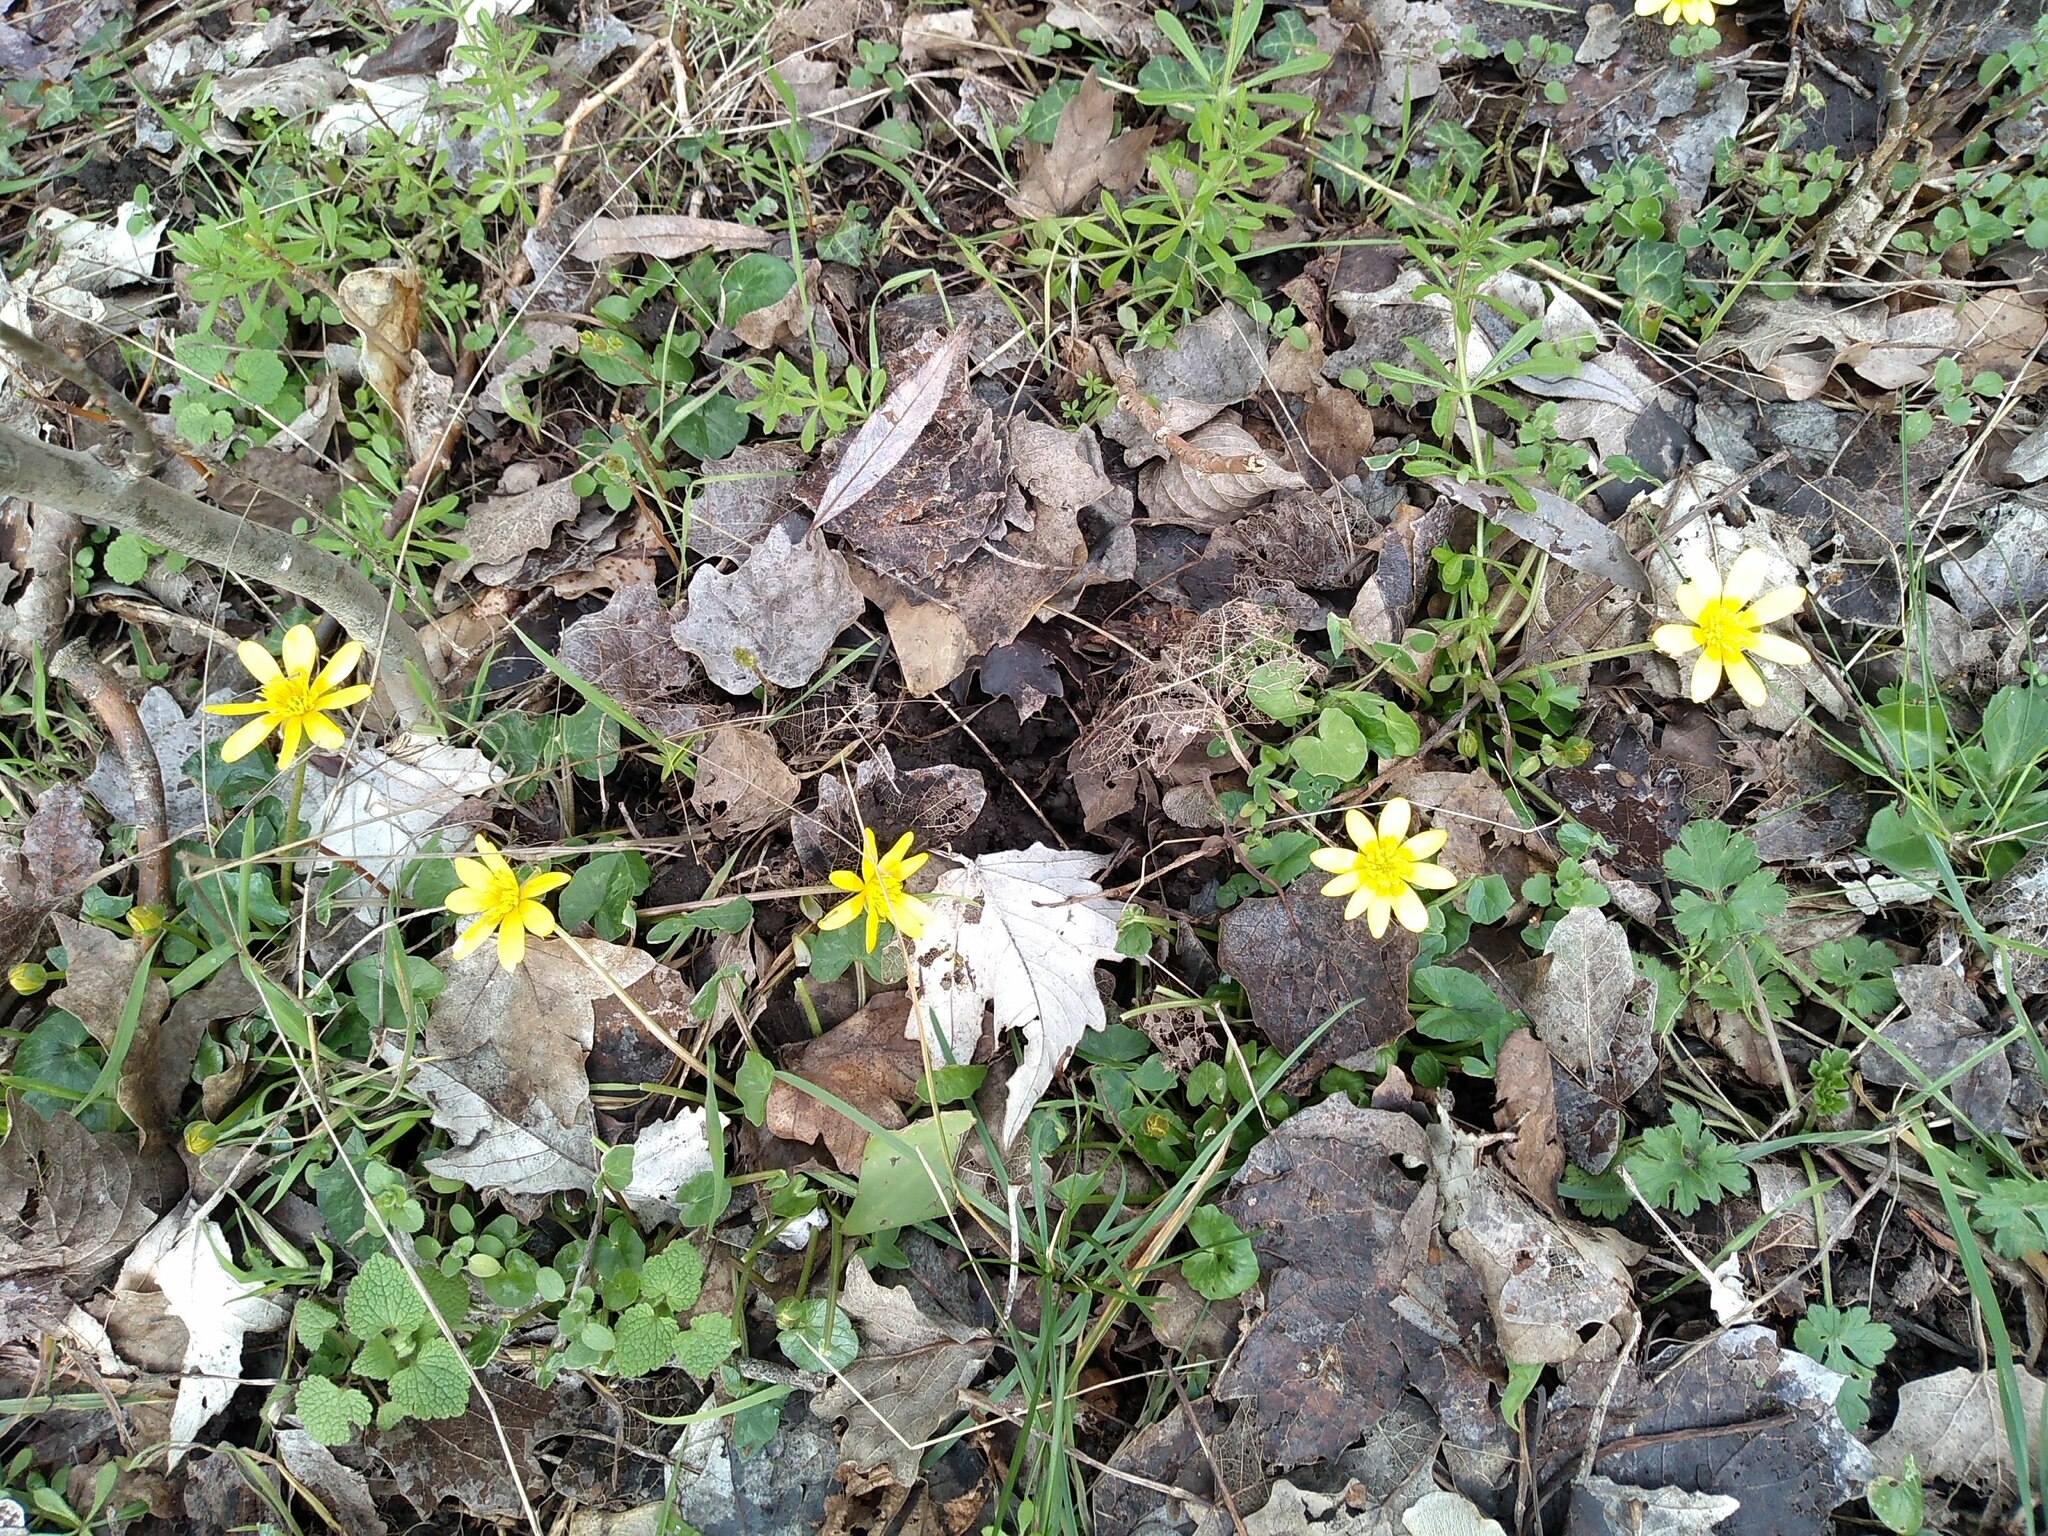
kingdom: Plantae
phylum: Tracheophyta
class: Magnoliopsida
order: Ranunculales
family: Ranunculaceae
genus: Ficaria
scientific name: Ficaria verna
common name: Lesser celandine
